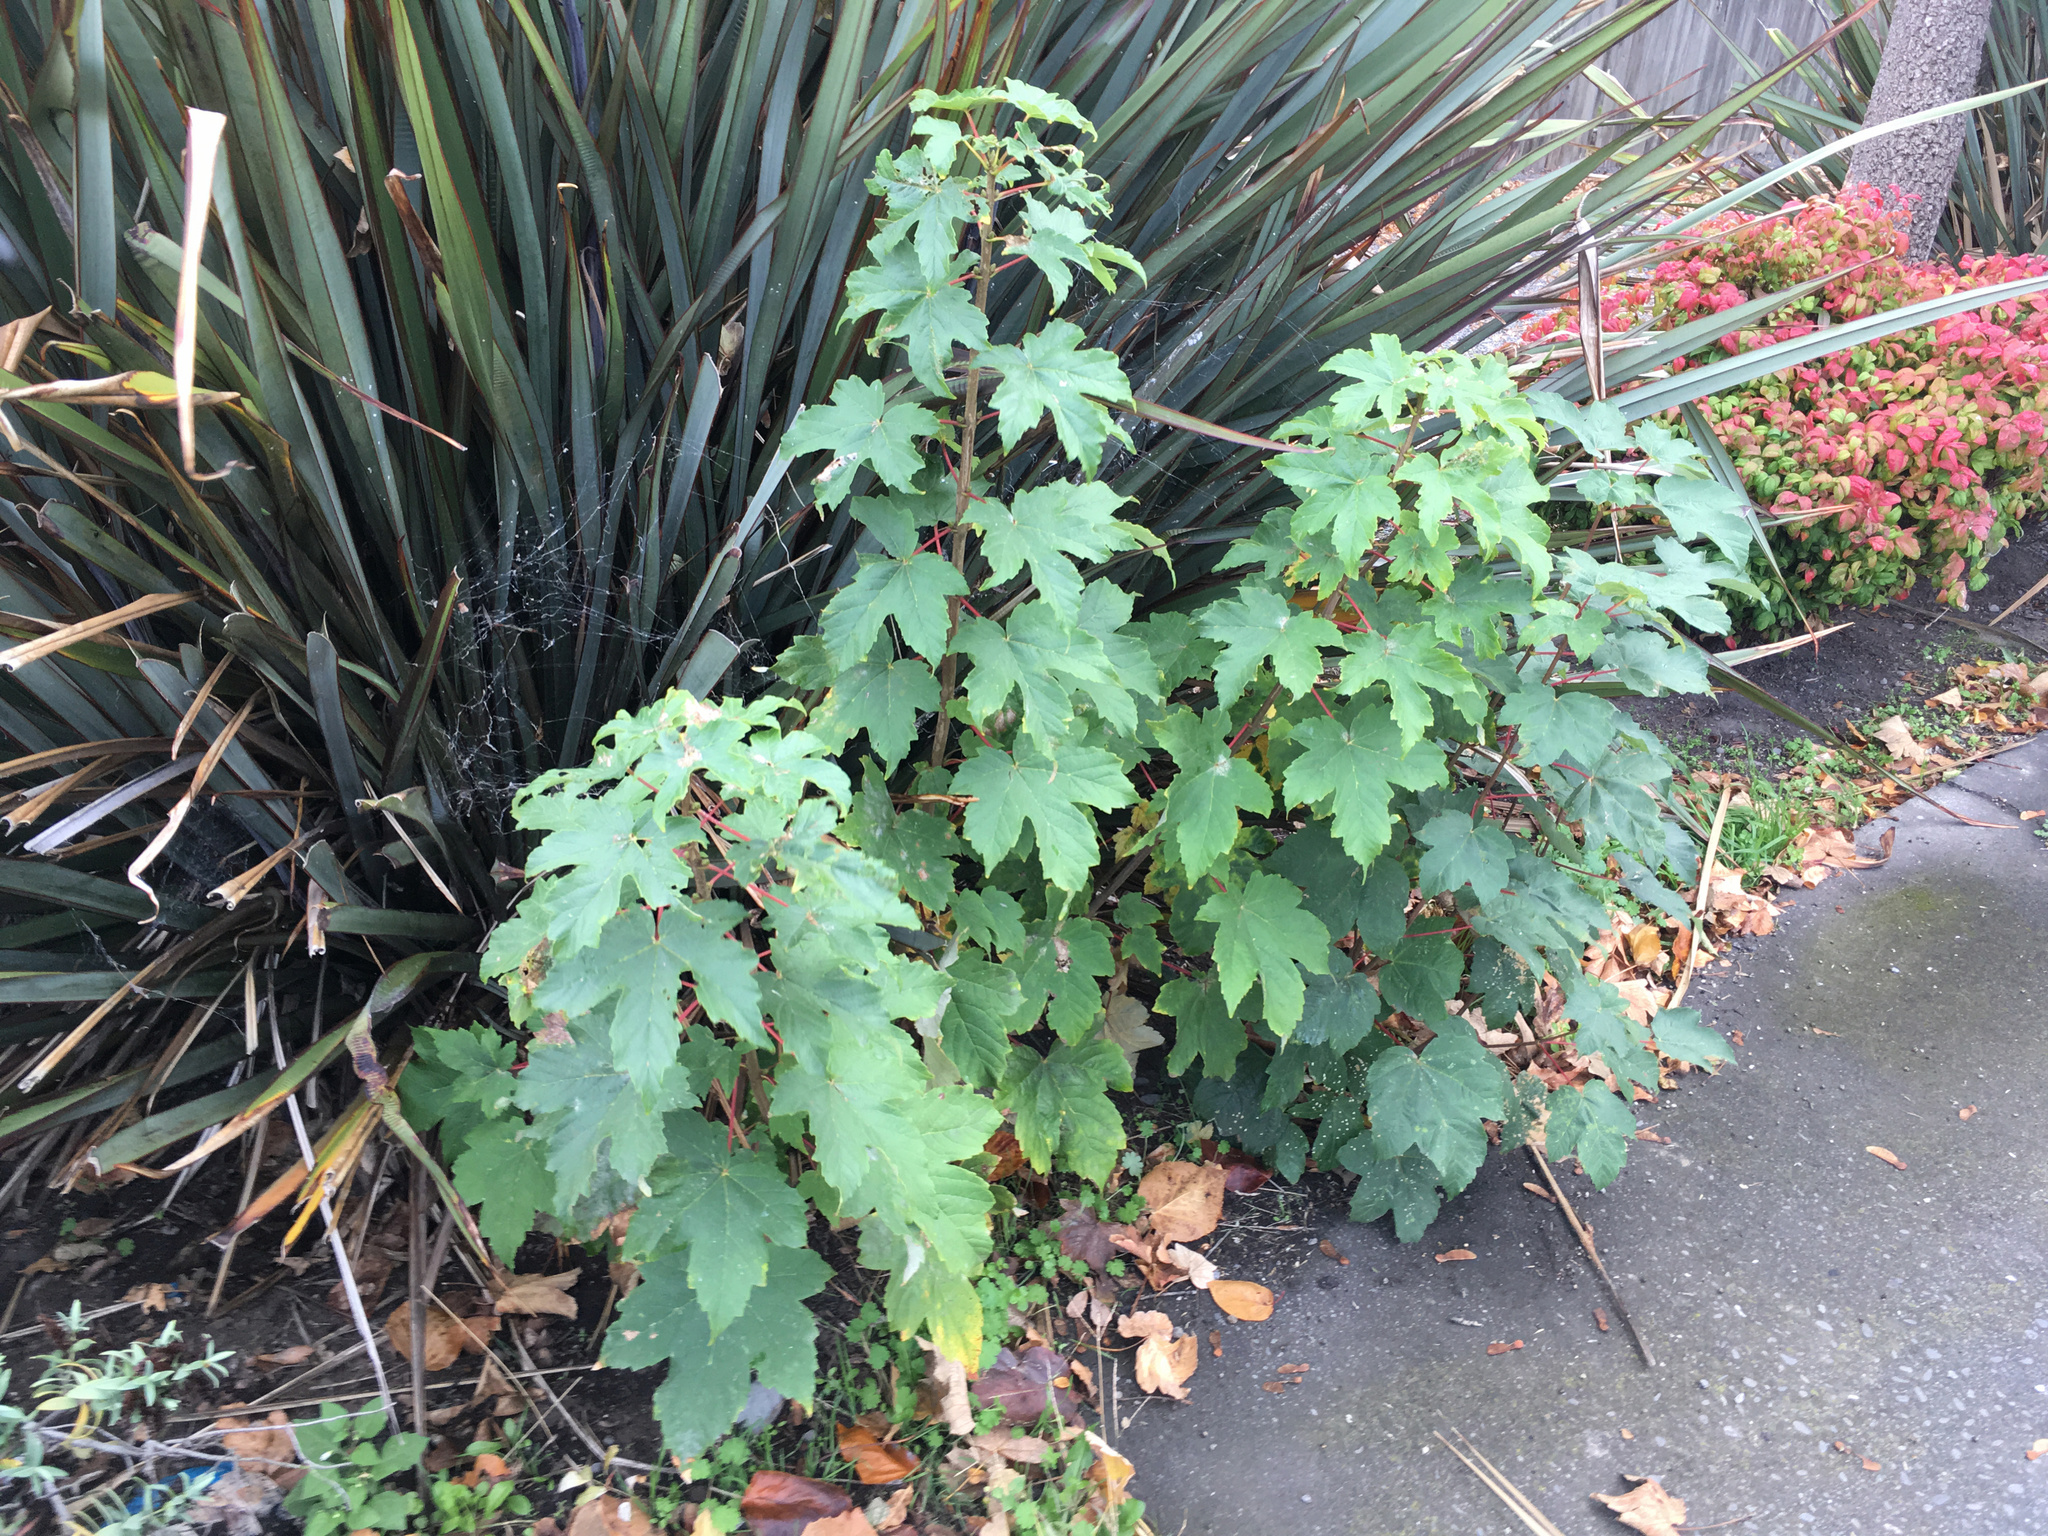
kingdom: Plantae
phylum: Tracheophyta
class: Magnoliopsida
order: Sapindales
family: Sapindaceae
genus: Acer
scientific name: Acer pseudoplatanus
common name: Sycamore
